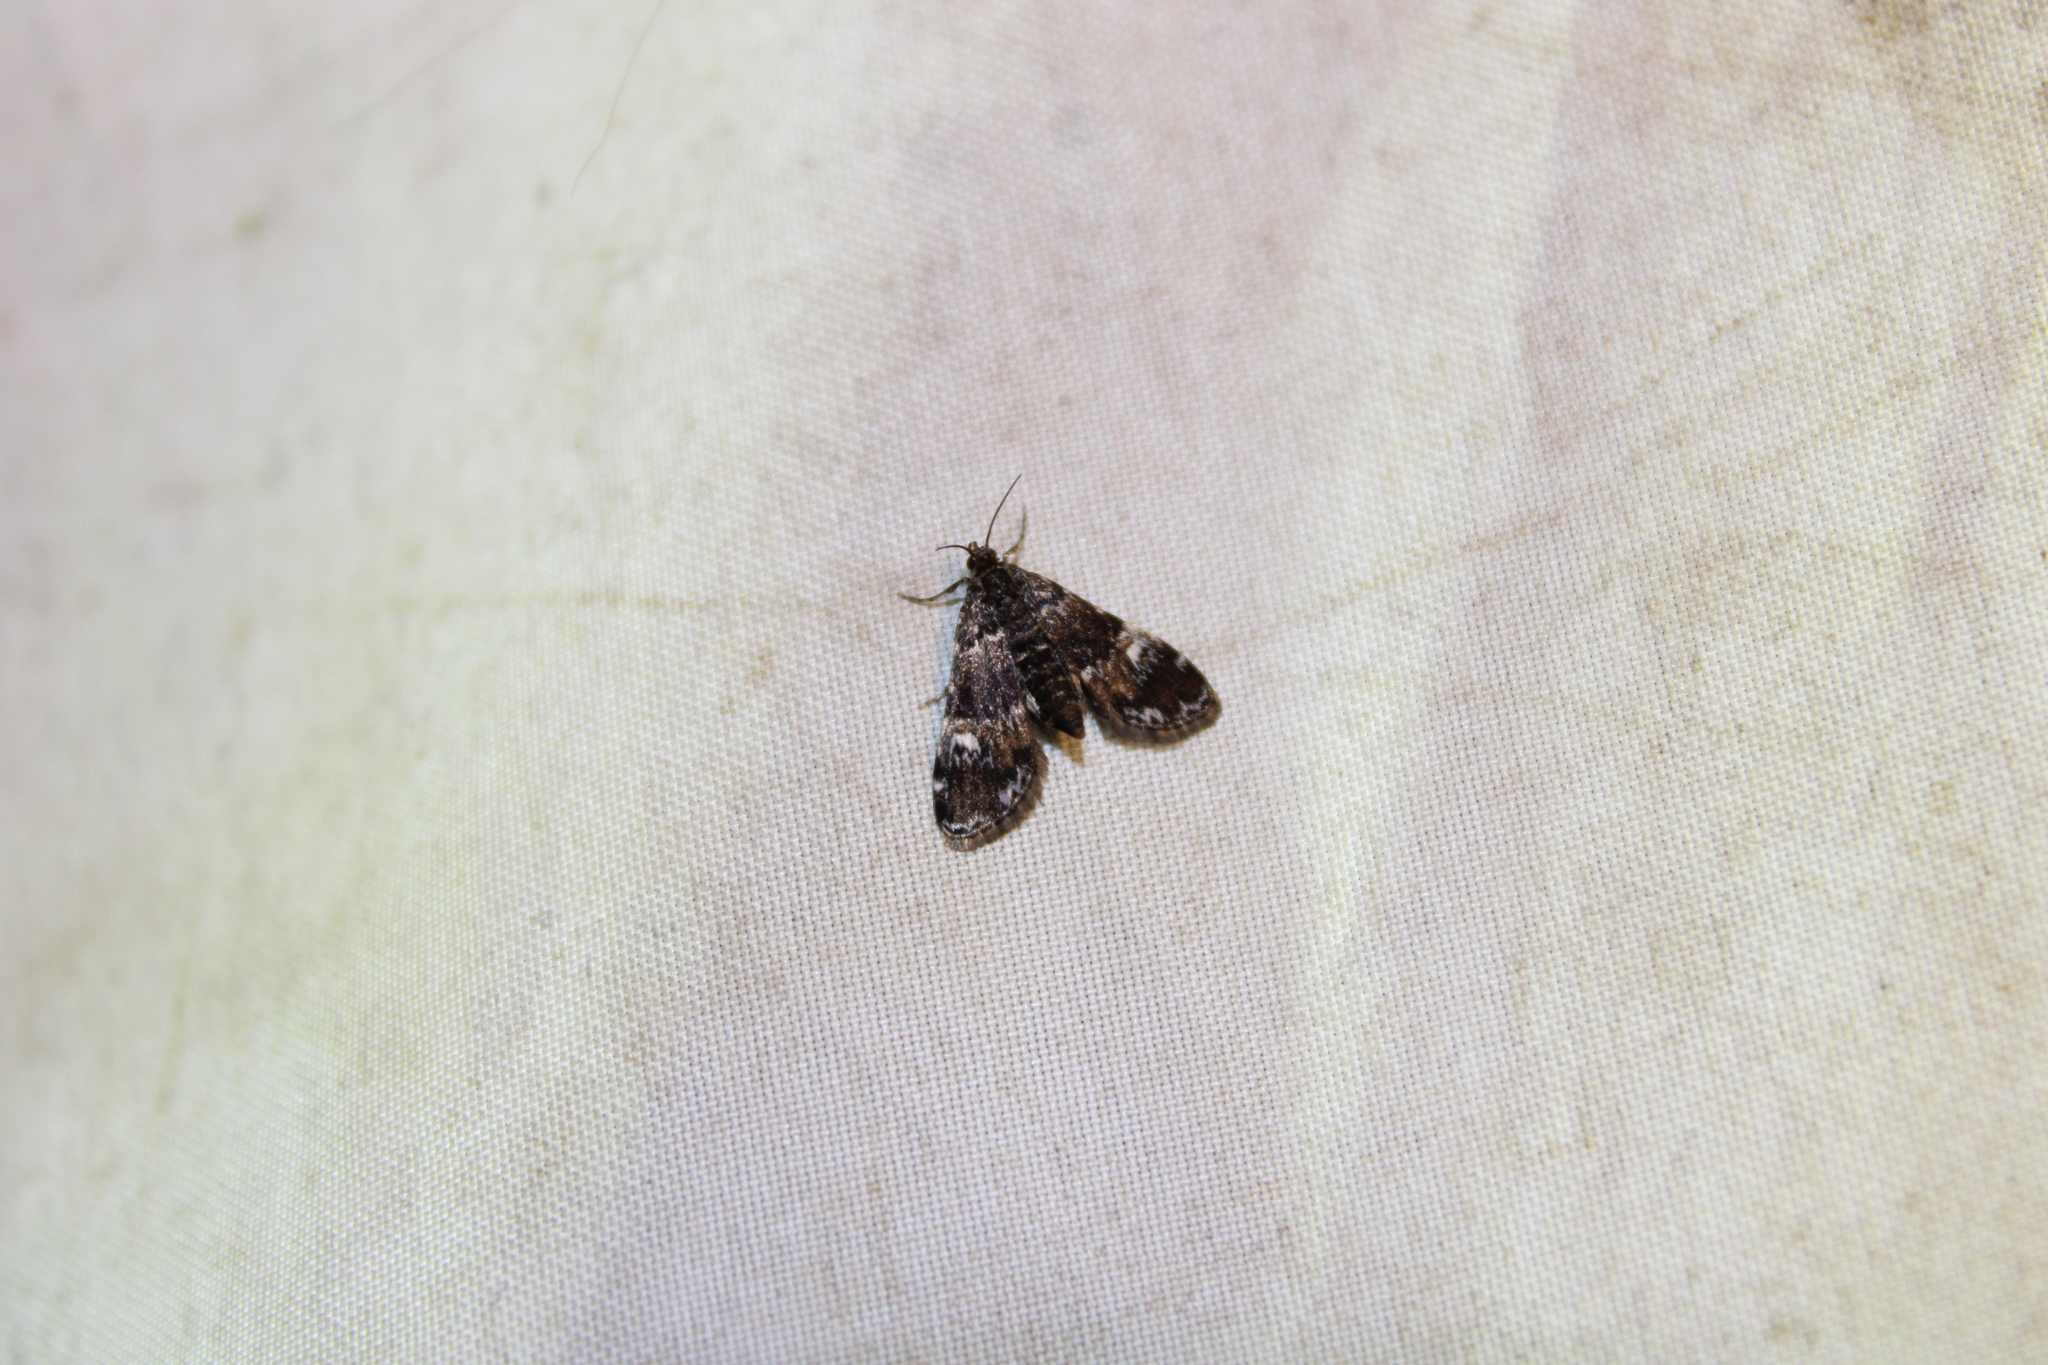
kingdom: Animalia
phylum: Arthropoda
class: Insecta
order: Lepidoptera
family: Crambidae
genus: Elophila
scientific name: Elophila obliteralis
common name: Waterlily leafcutter moth
